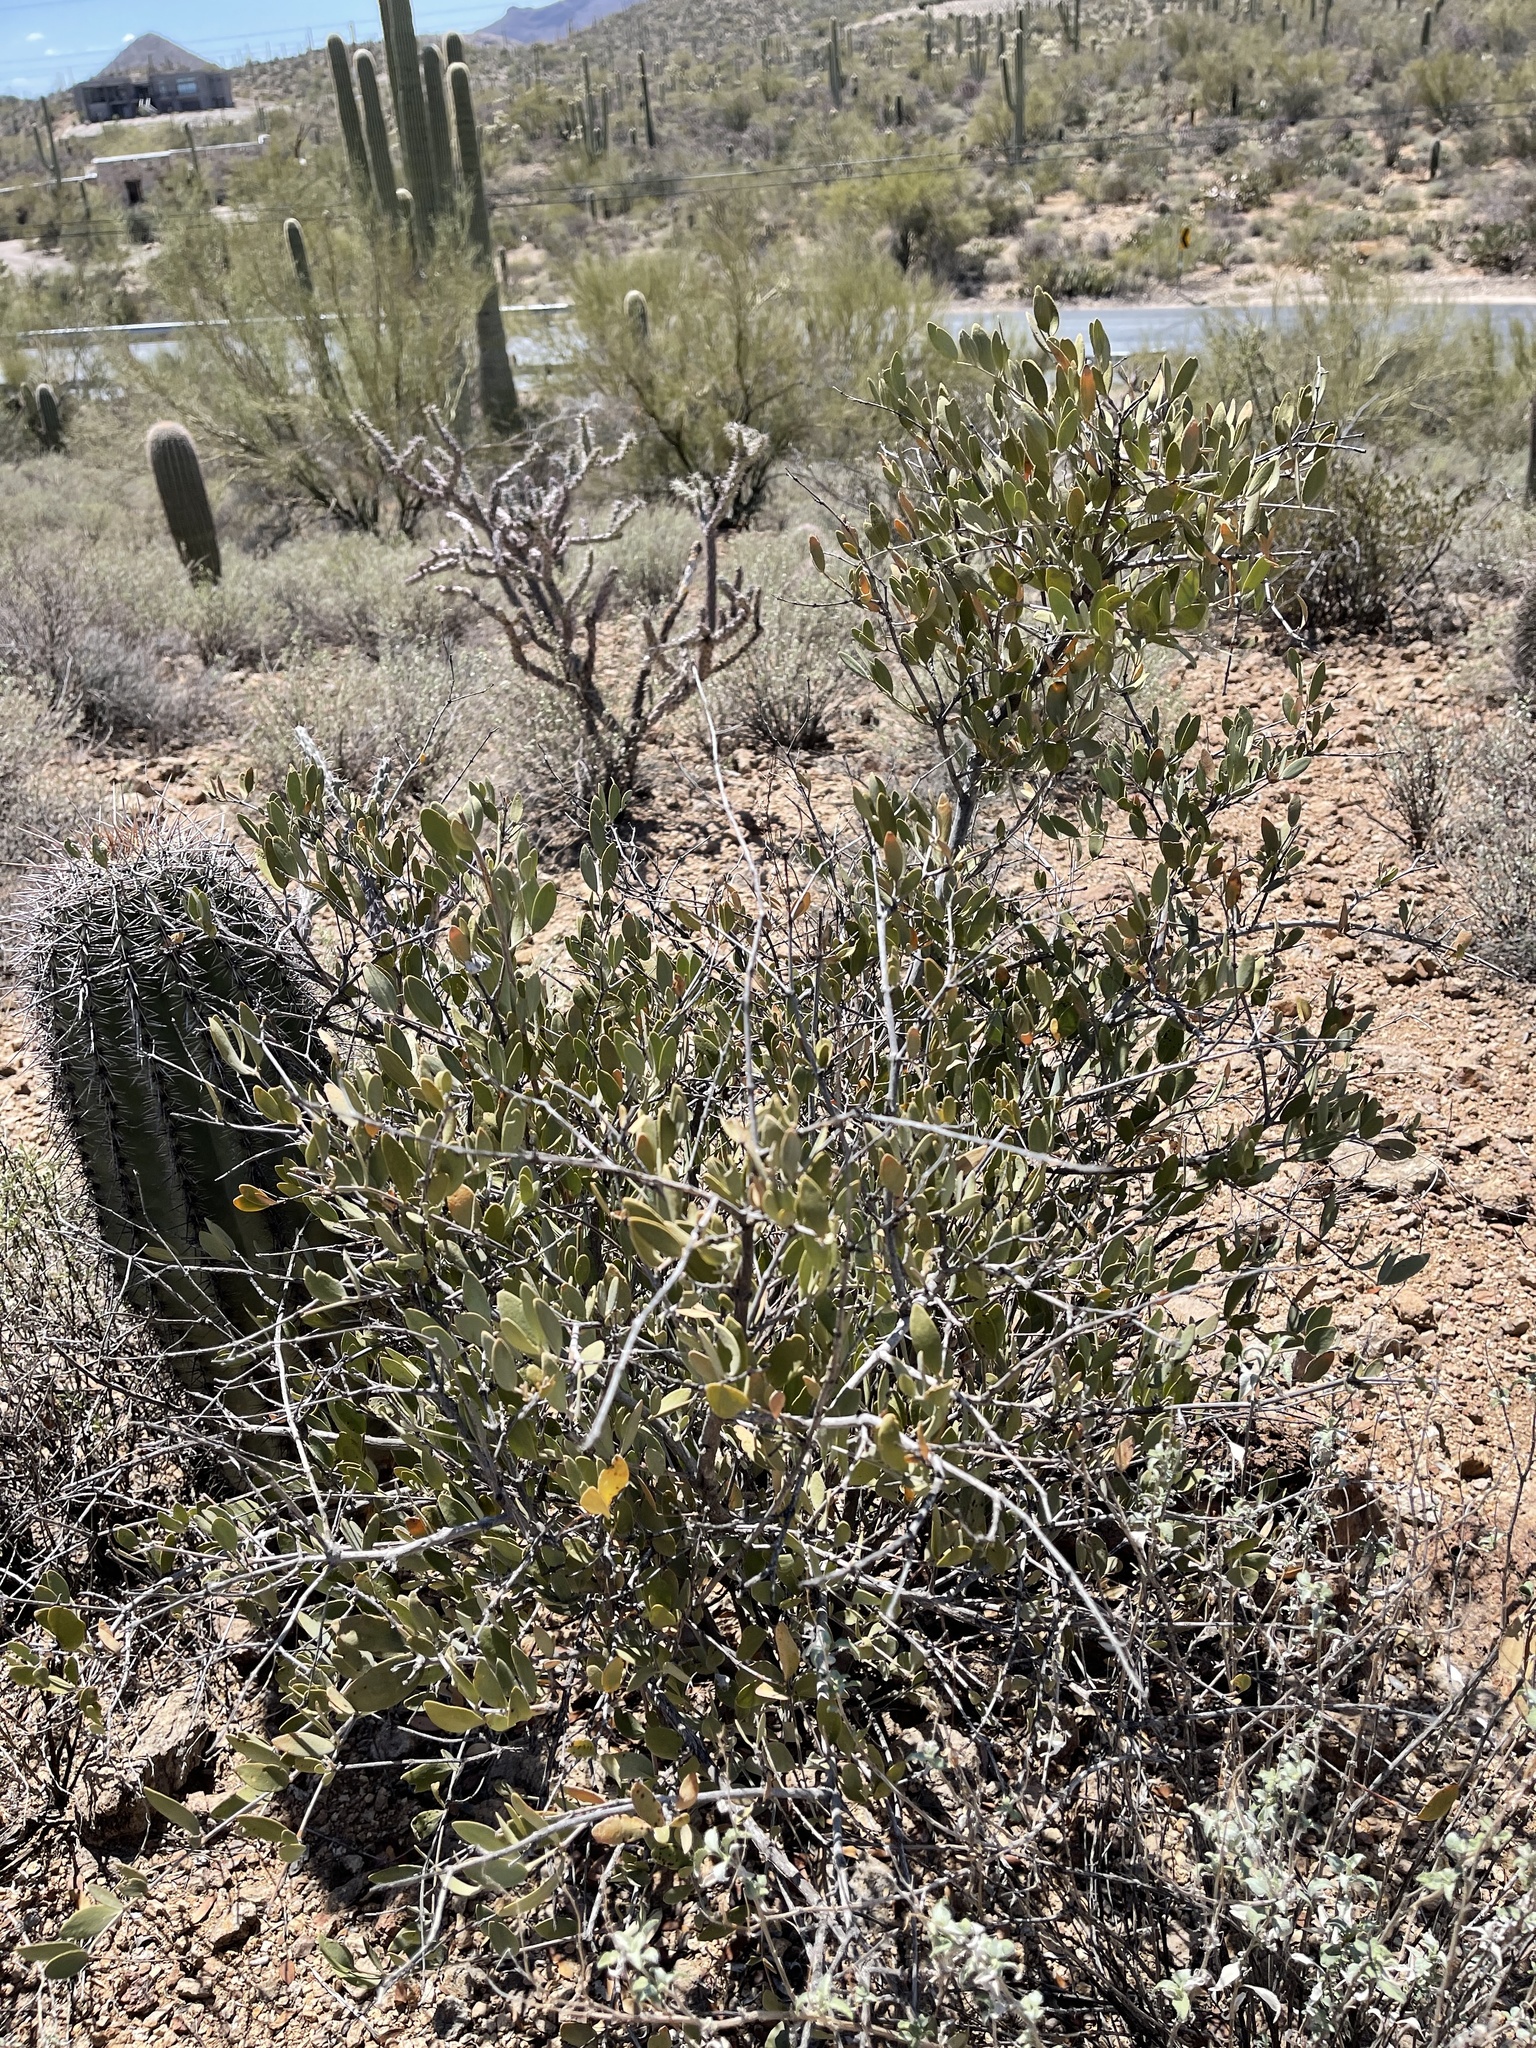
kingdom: Plantae
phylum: Tracheophyta
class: Magnoliopsida
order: Caryophyllales
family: Simmondsiaceae
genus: Simmondsia
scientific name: Simmondsia chinensis
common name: Jojoba
